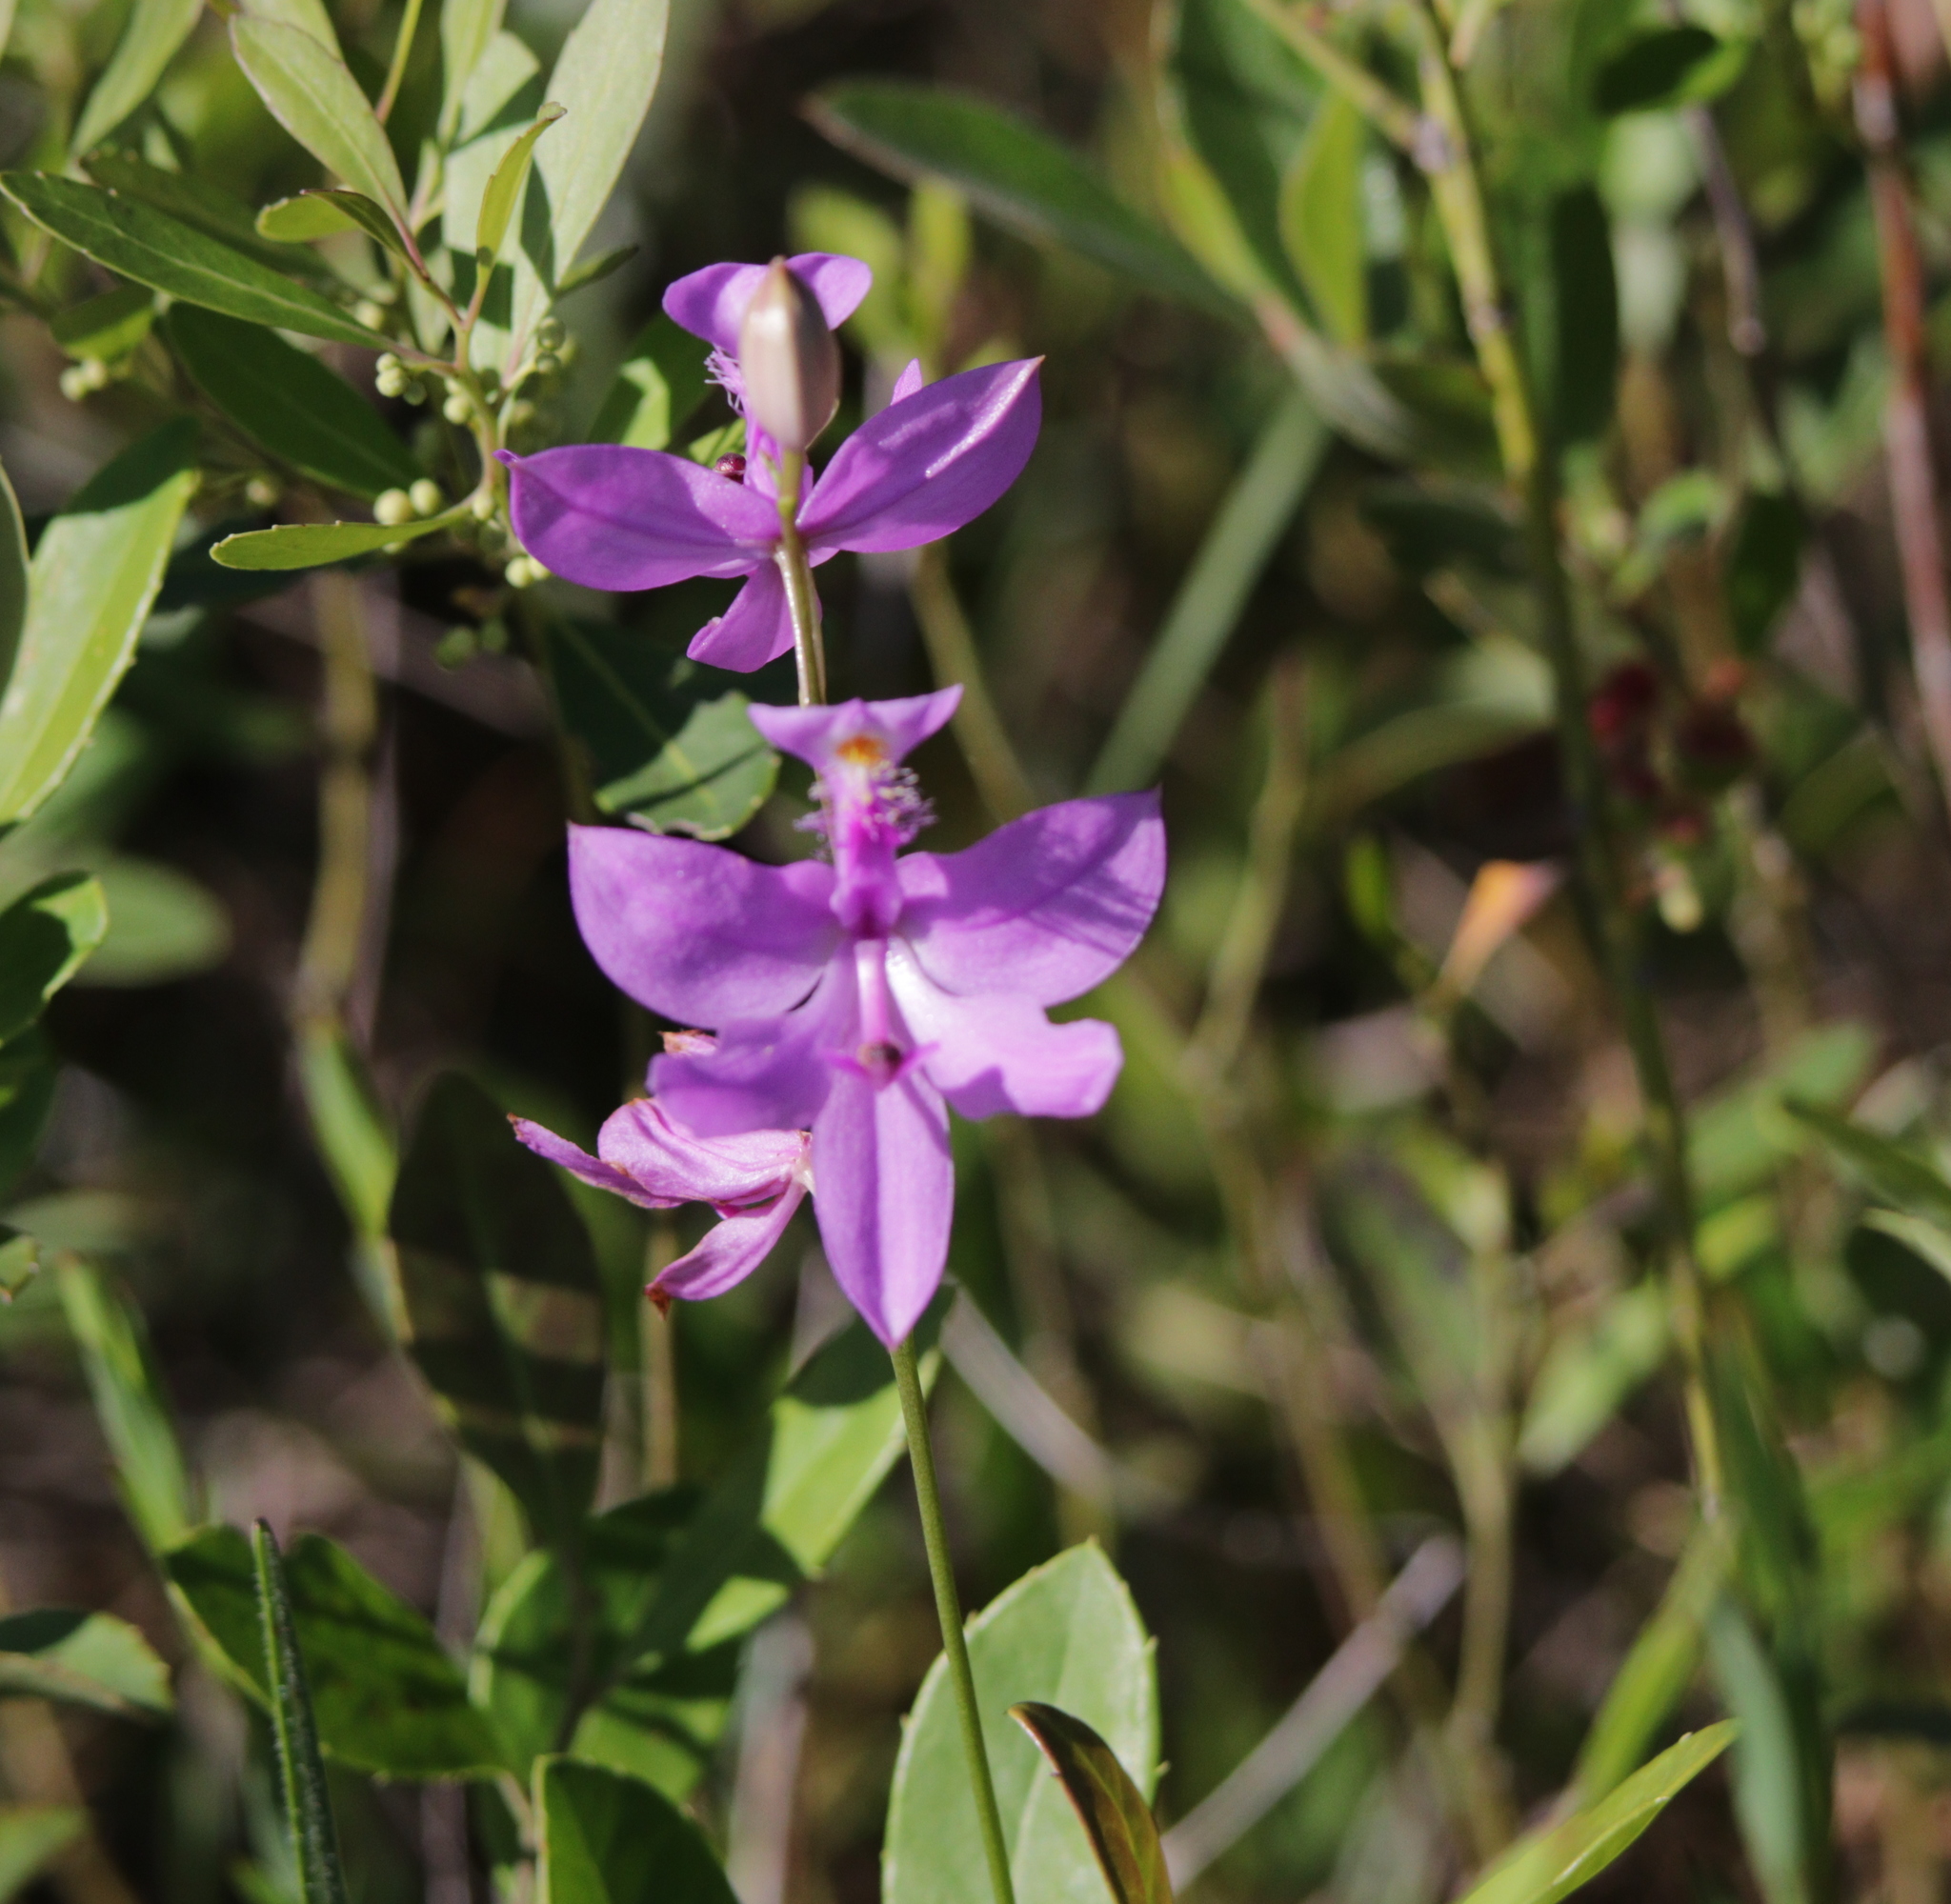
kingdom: Plantae
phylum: Tracheophyta
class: Liliopsida
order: Asparagales
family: Orchidaceae
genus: Calopogon
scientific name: Calopogon tuberosus
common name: Grass-pink
